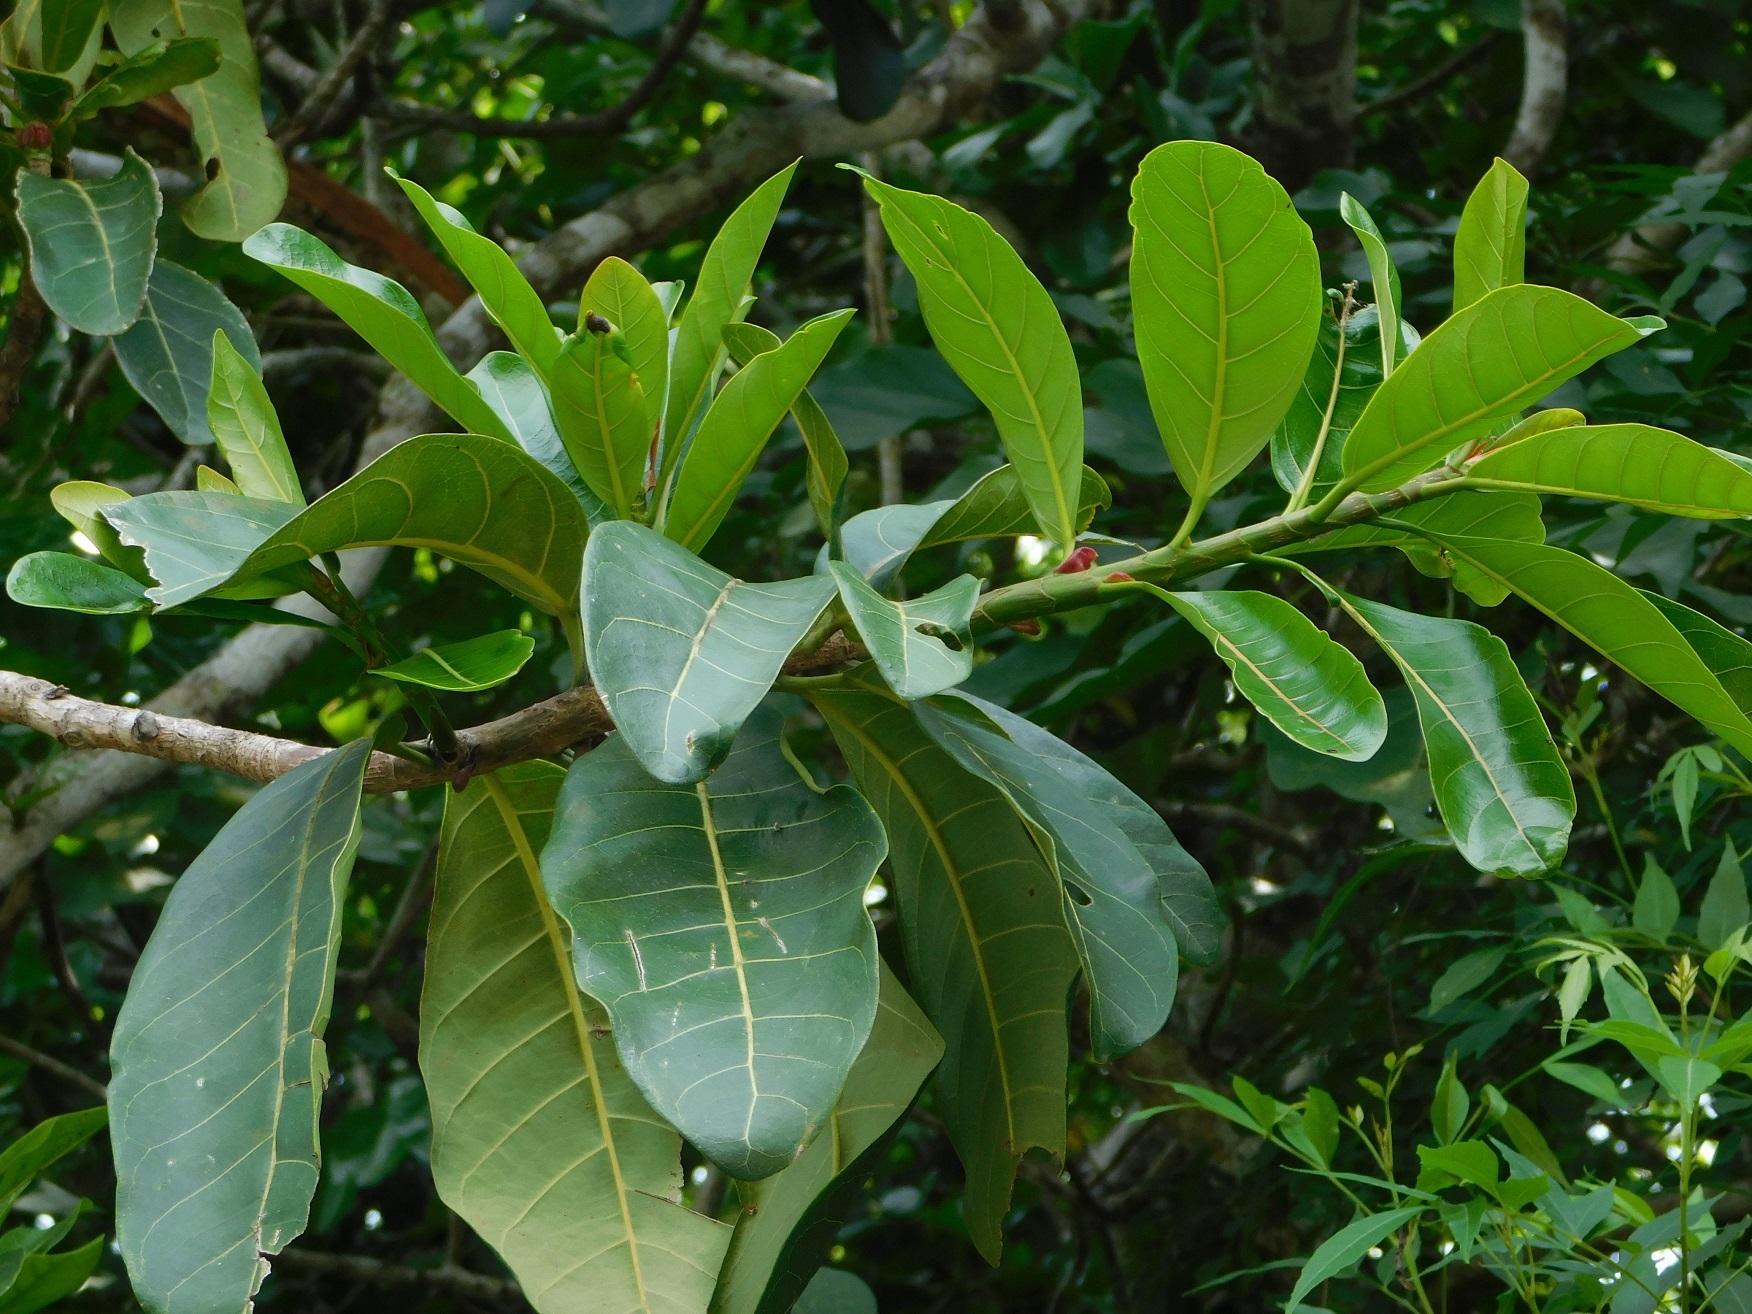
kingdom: Plantae
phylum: Tracheophyta
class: Magnoliopsida
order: Rosales
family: Moraceae
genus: Ficus
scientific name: Ficus obtusifolia
